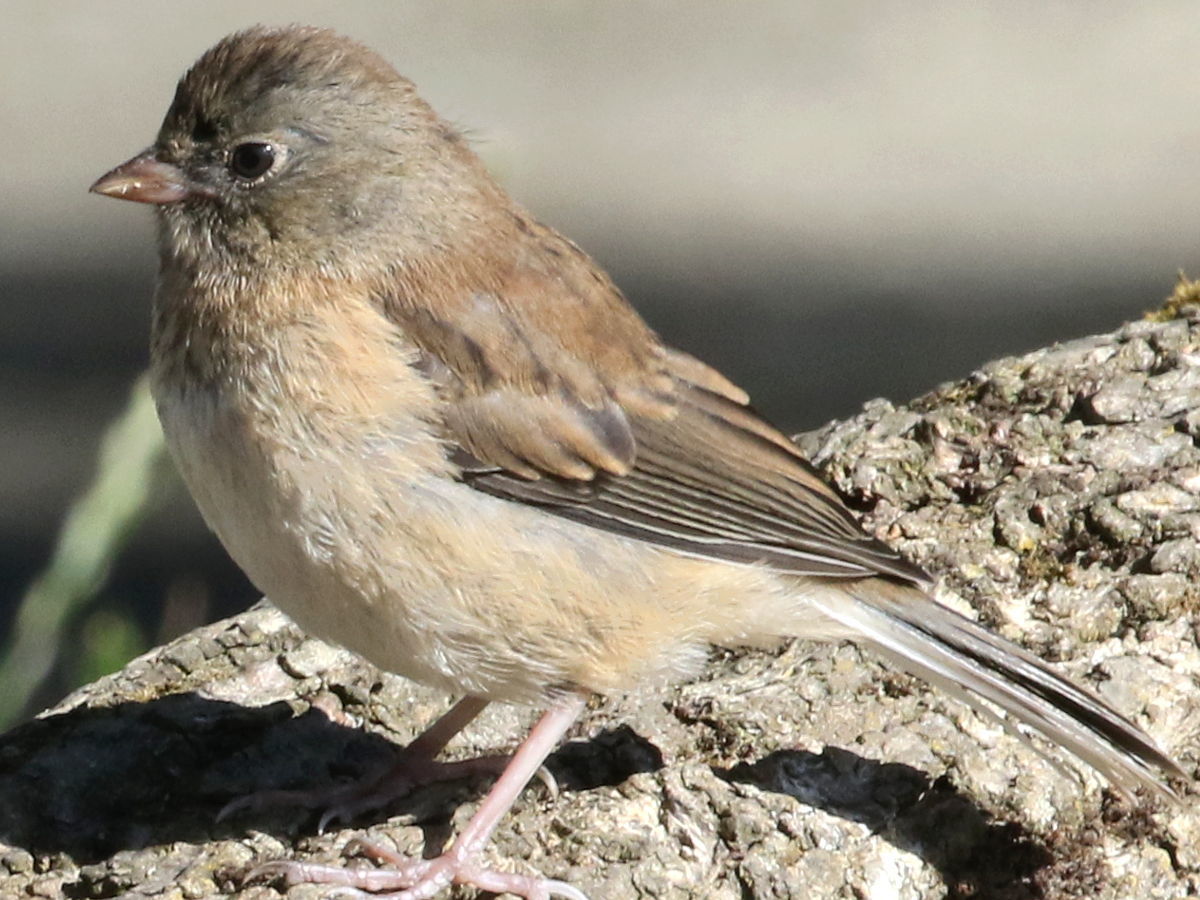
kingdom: Animalia
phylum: Chordata
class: Aves
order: Passeriformes
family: Passerellidae
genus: Junco
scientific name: Junco hyemalis
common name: Dark-eyed junco
